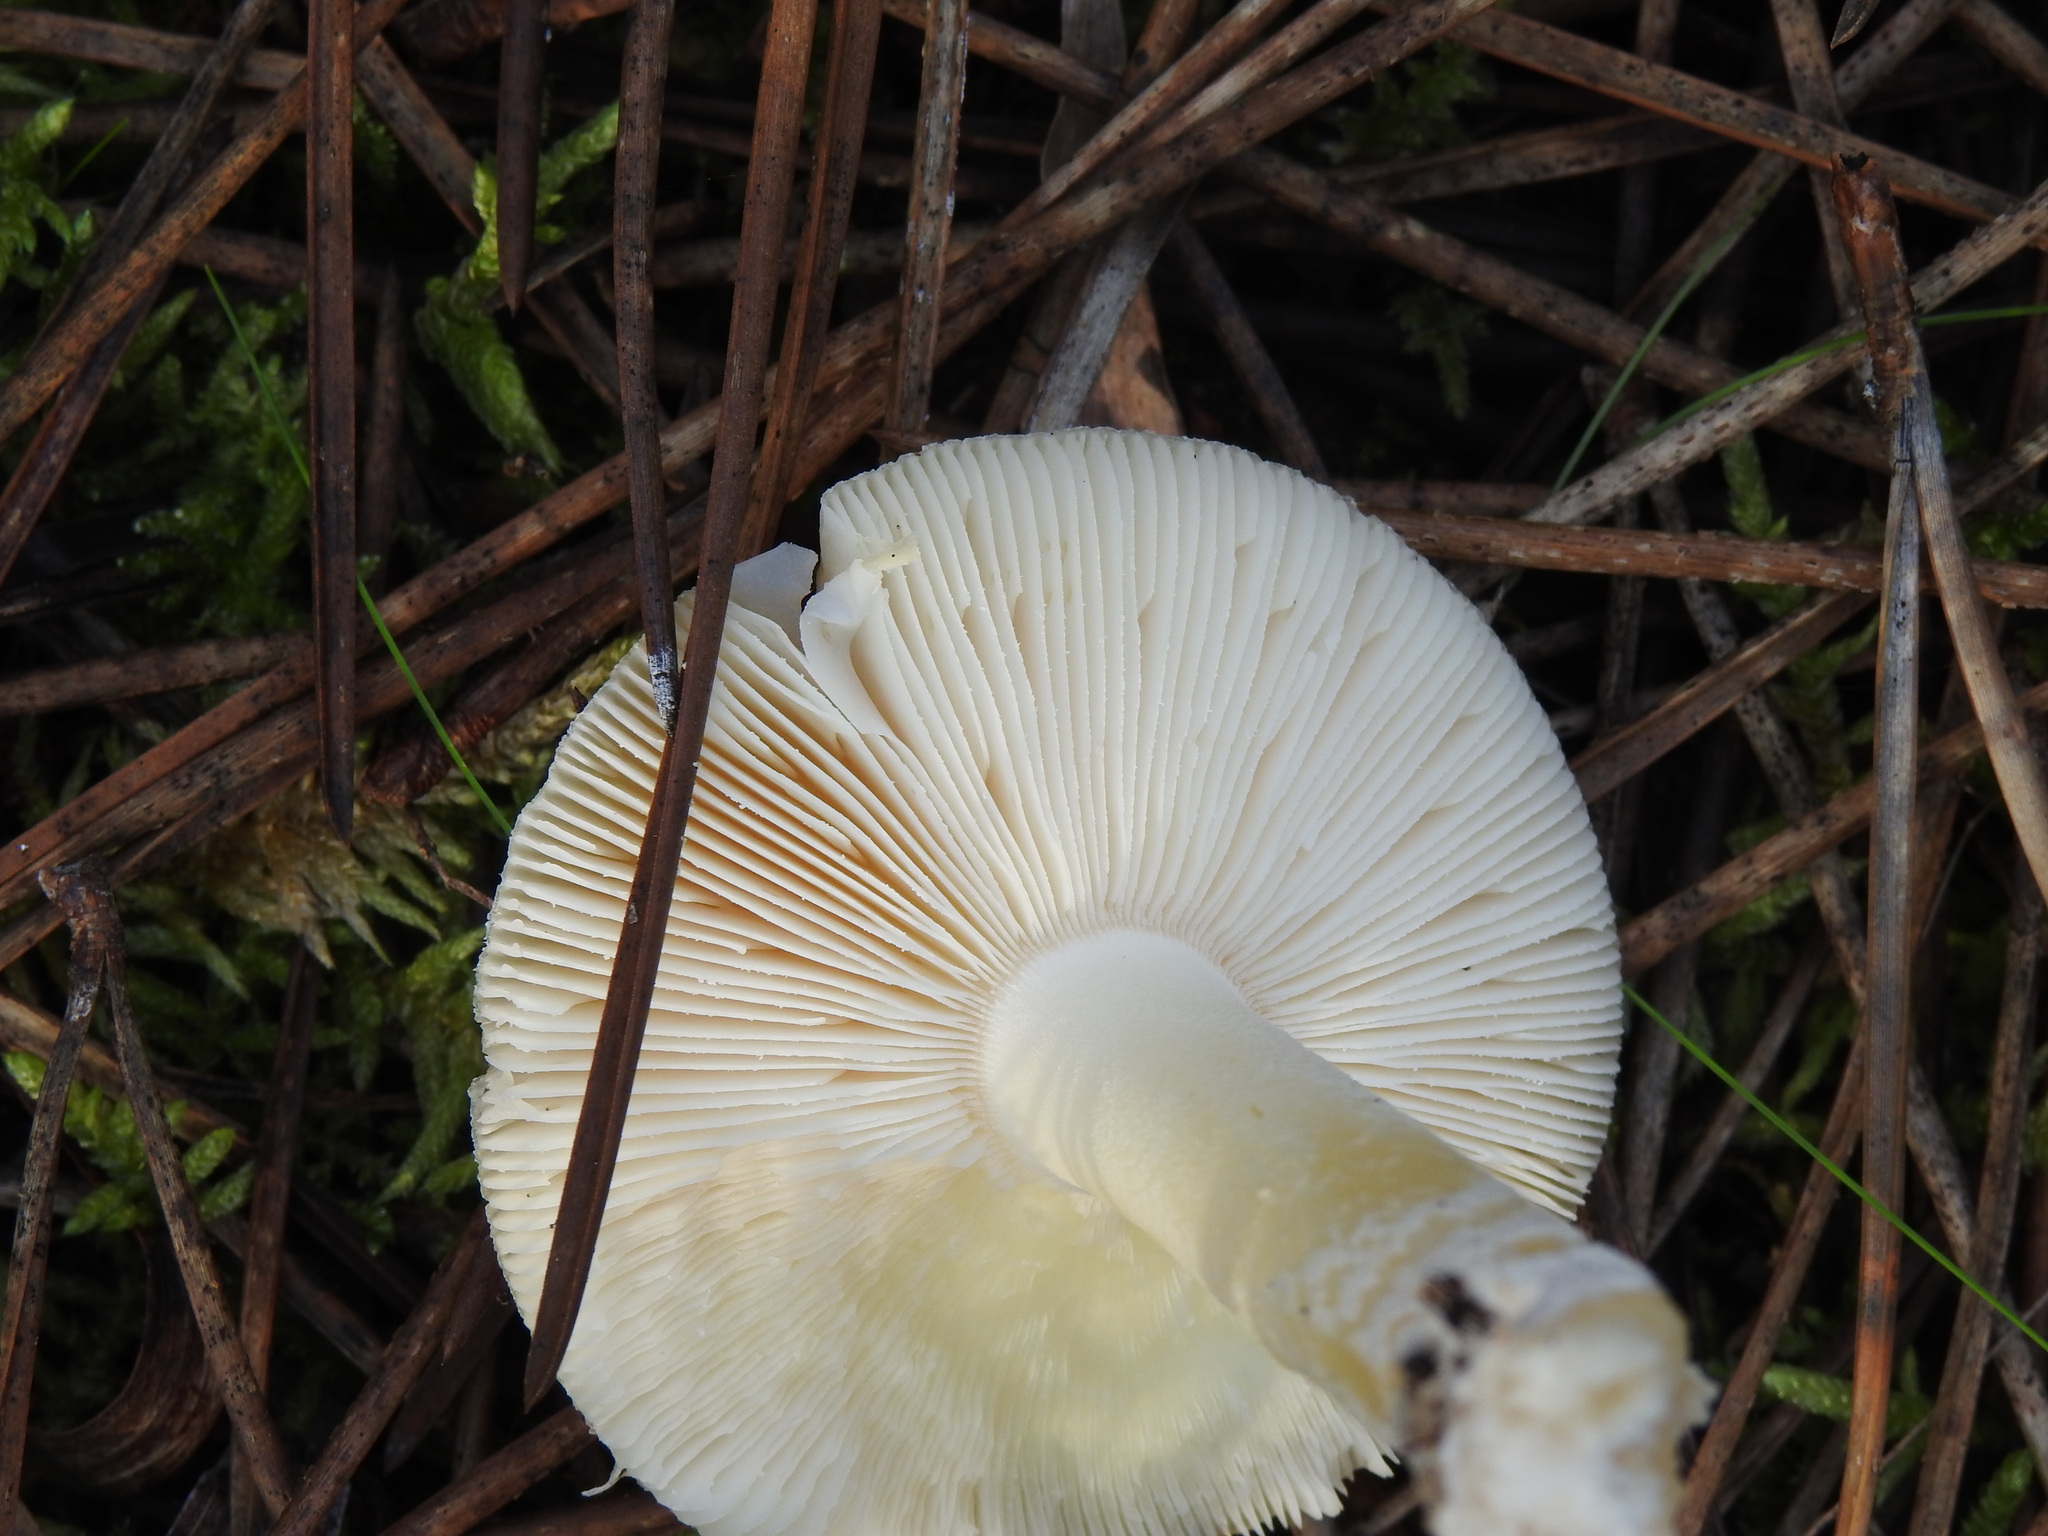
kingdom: Fungi
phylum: Basidiomycota
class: Agaricomycetes
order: Agaricales
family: Amanitaceae
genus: Amanita
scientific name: Amanita gemmata
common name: Jewelled amanita
